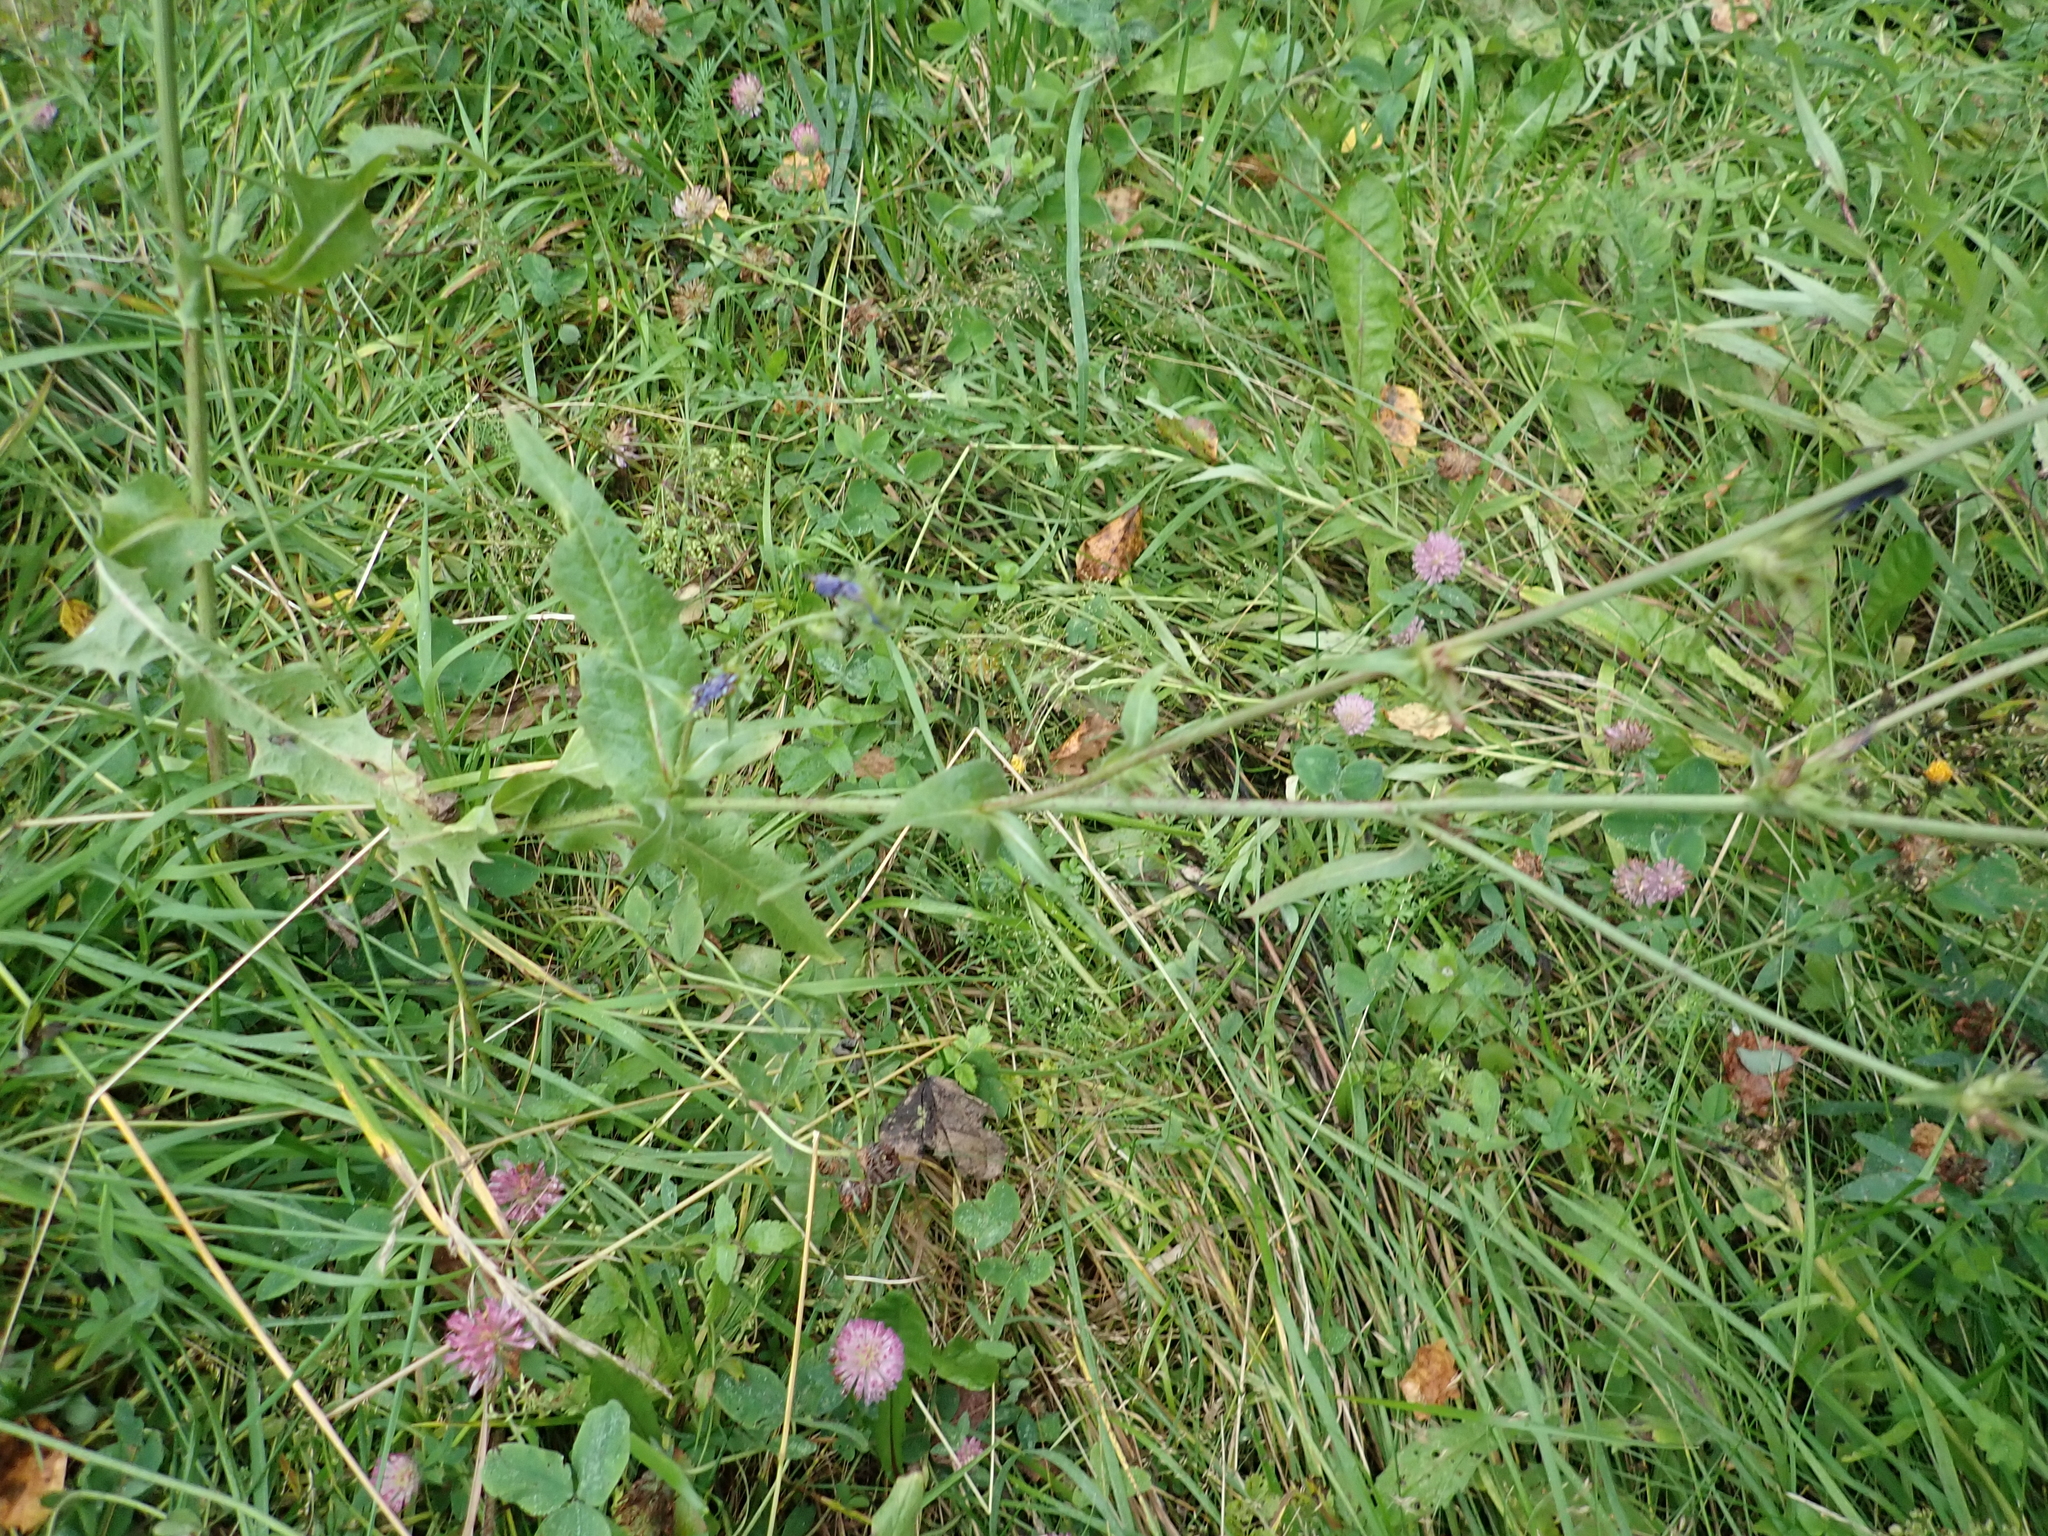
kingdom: Plantae
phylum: Tracheophyta
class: Magnoliopsida
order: Asterales
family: Asteraceae
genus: Cichorium
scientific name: Cichorium intybus
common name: Chicory
